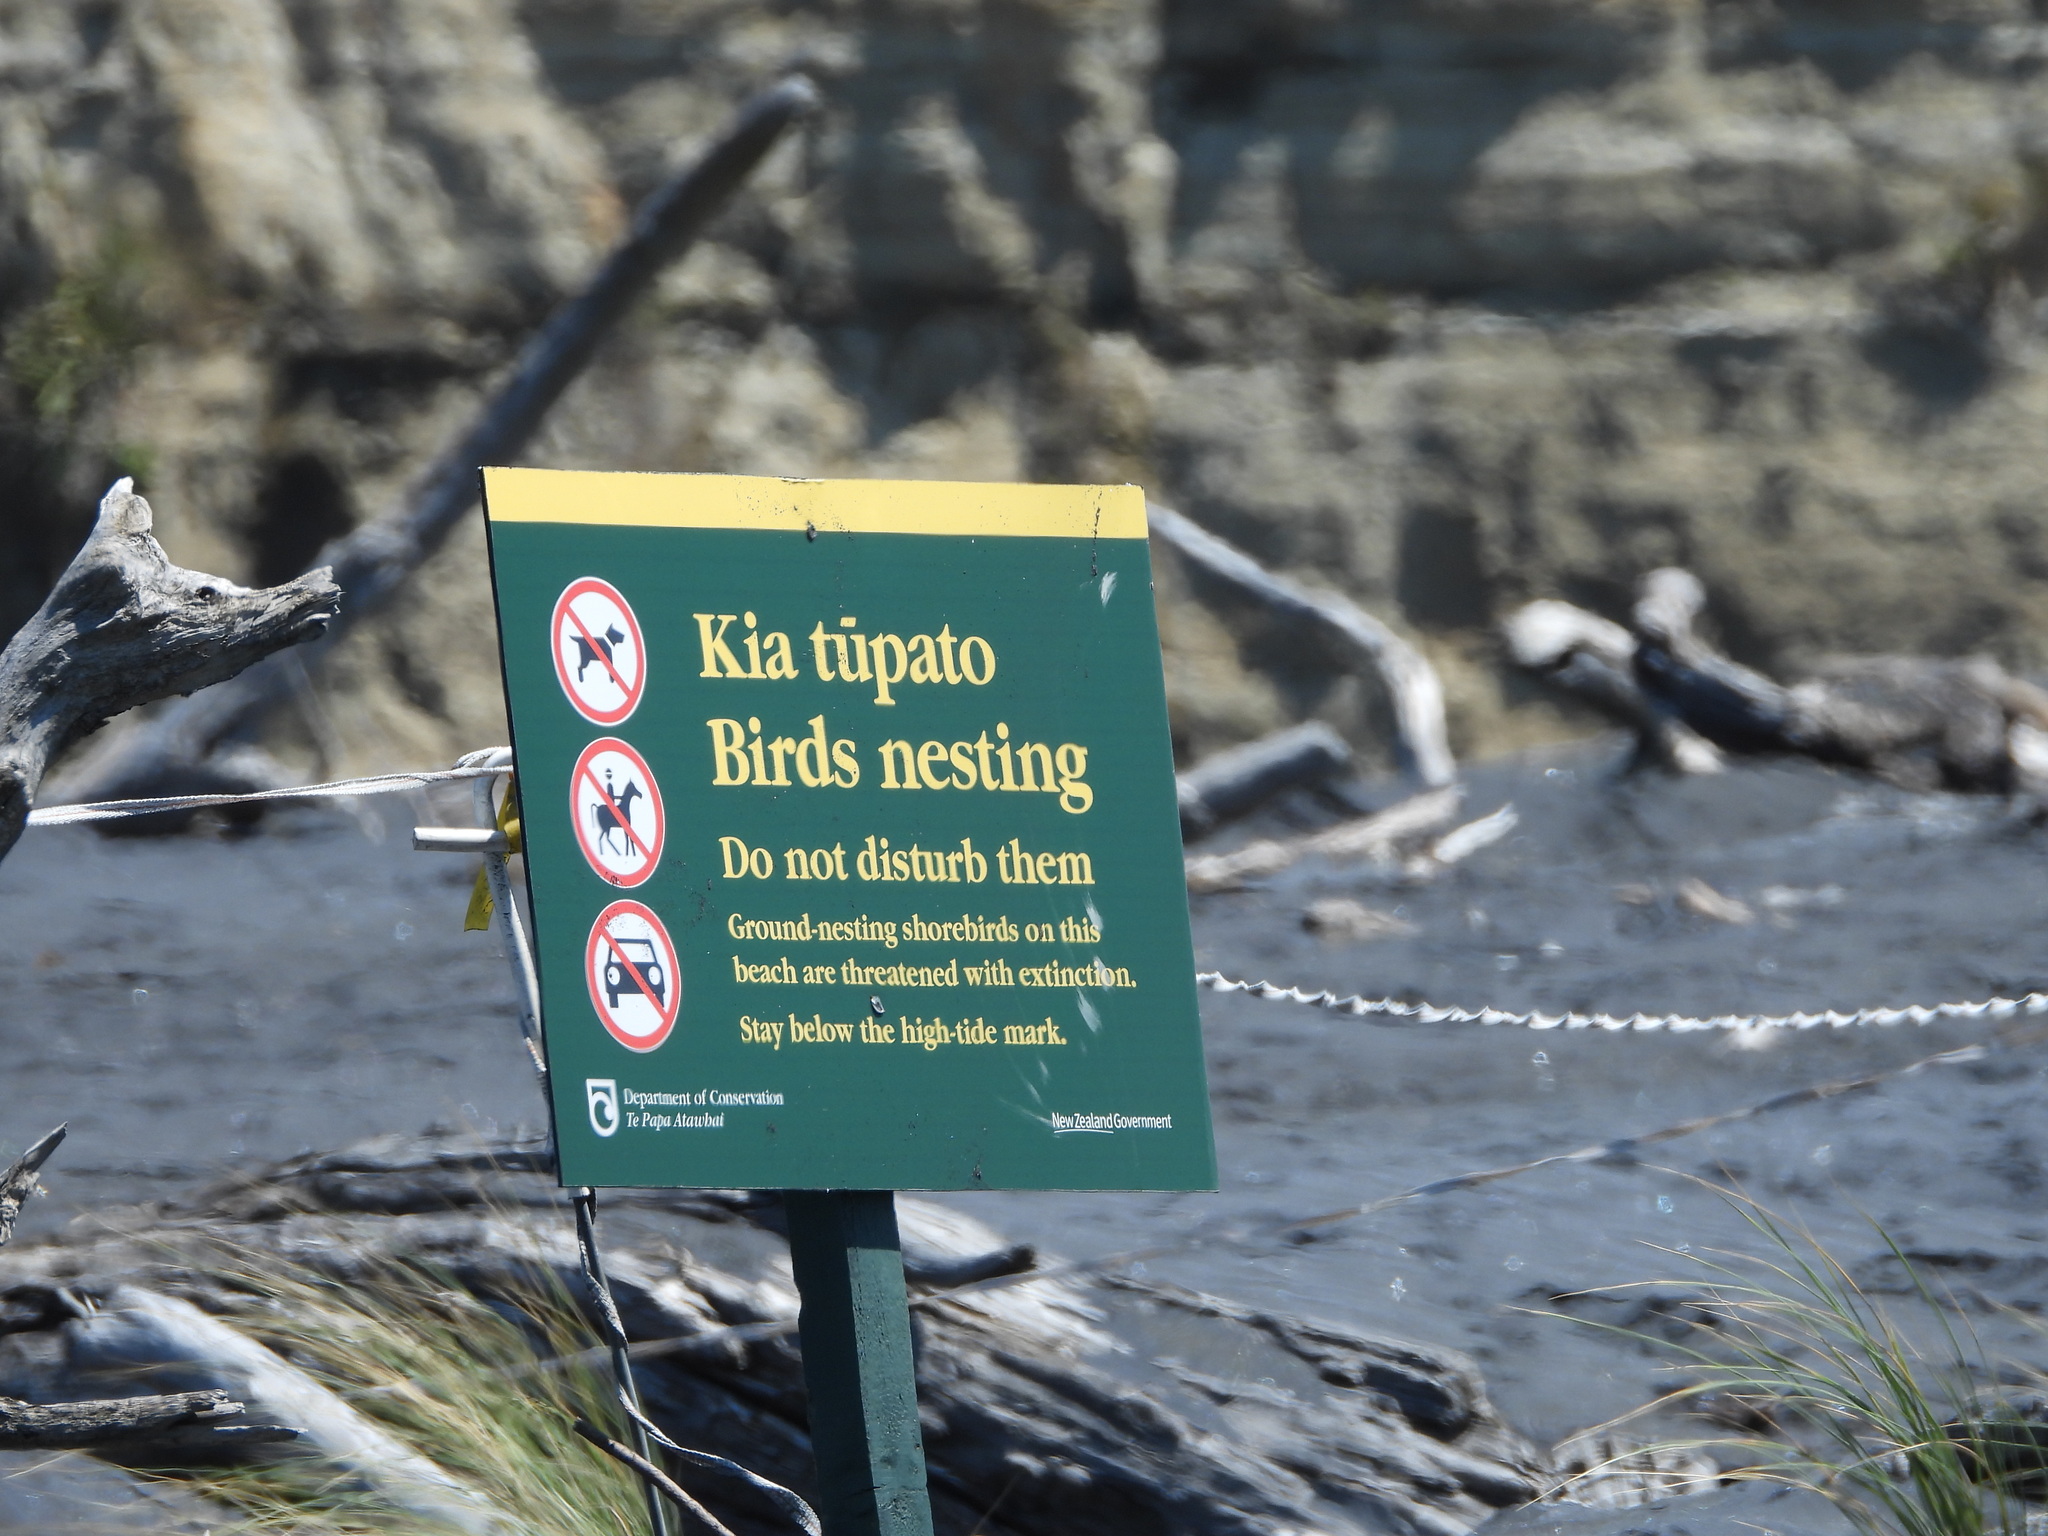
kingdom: Animalia
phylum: Chordata
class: Aves
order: Charadriiformes
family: Charadriidae
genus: Anarhynchus
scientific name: Anarhynchus
